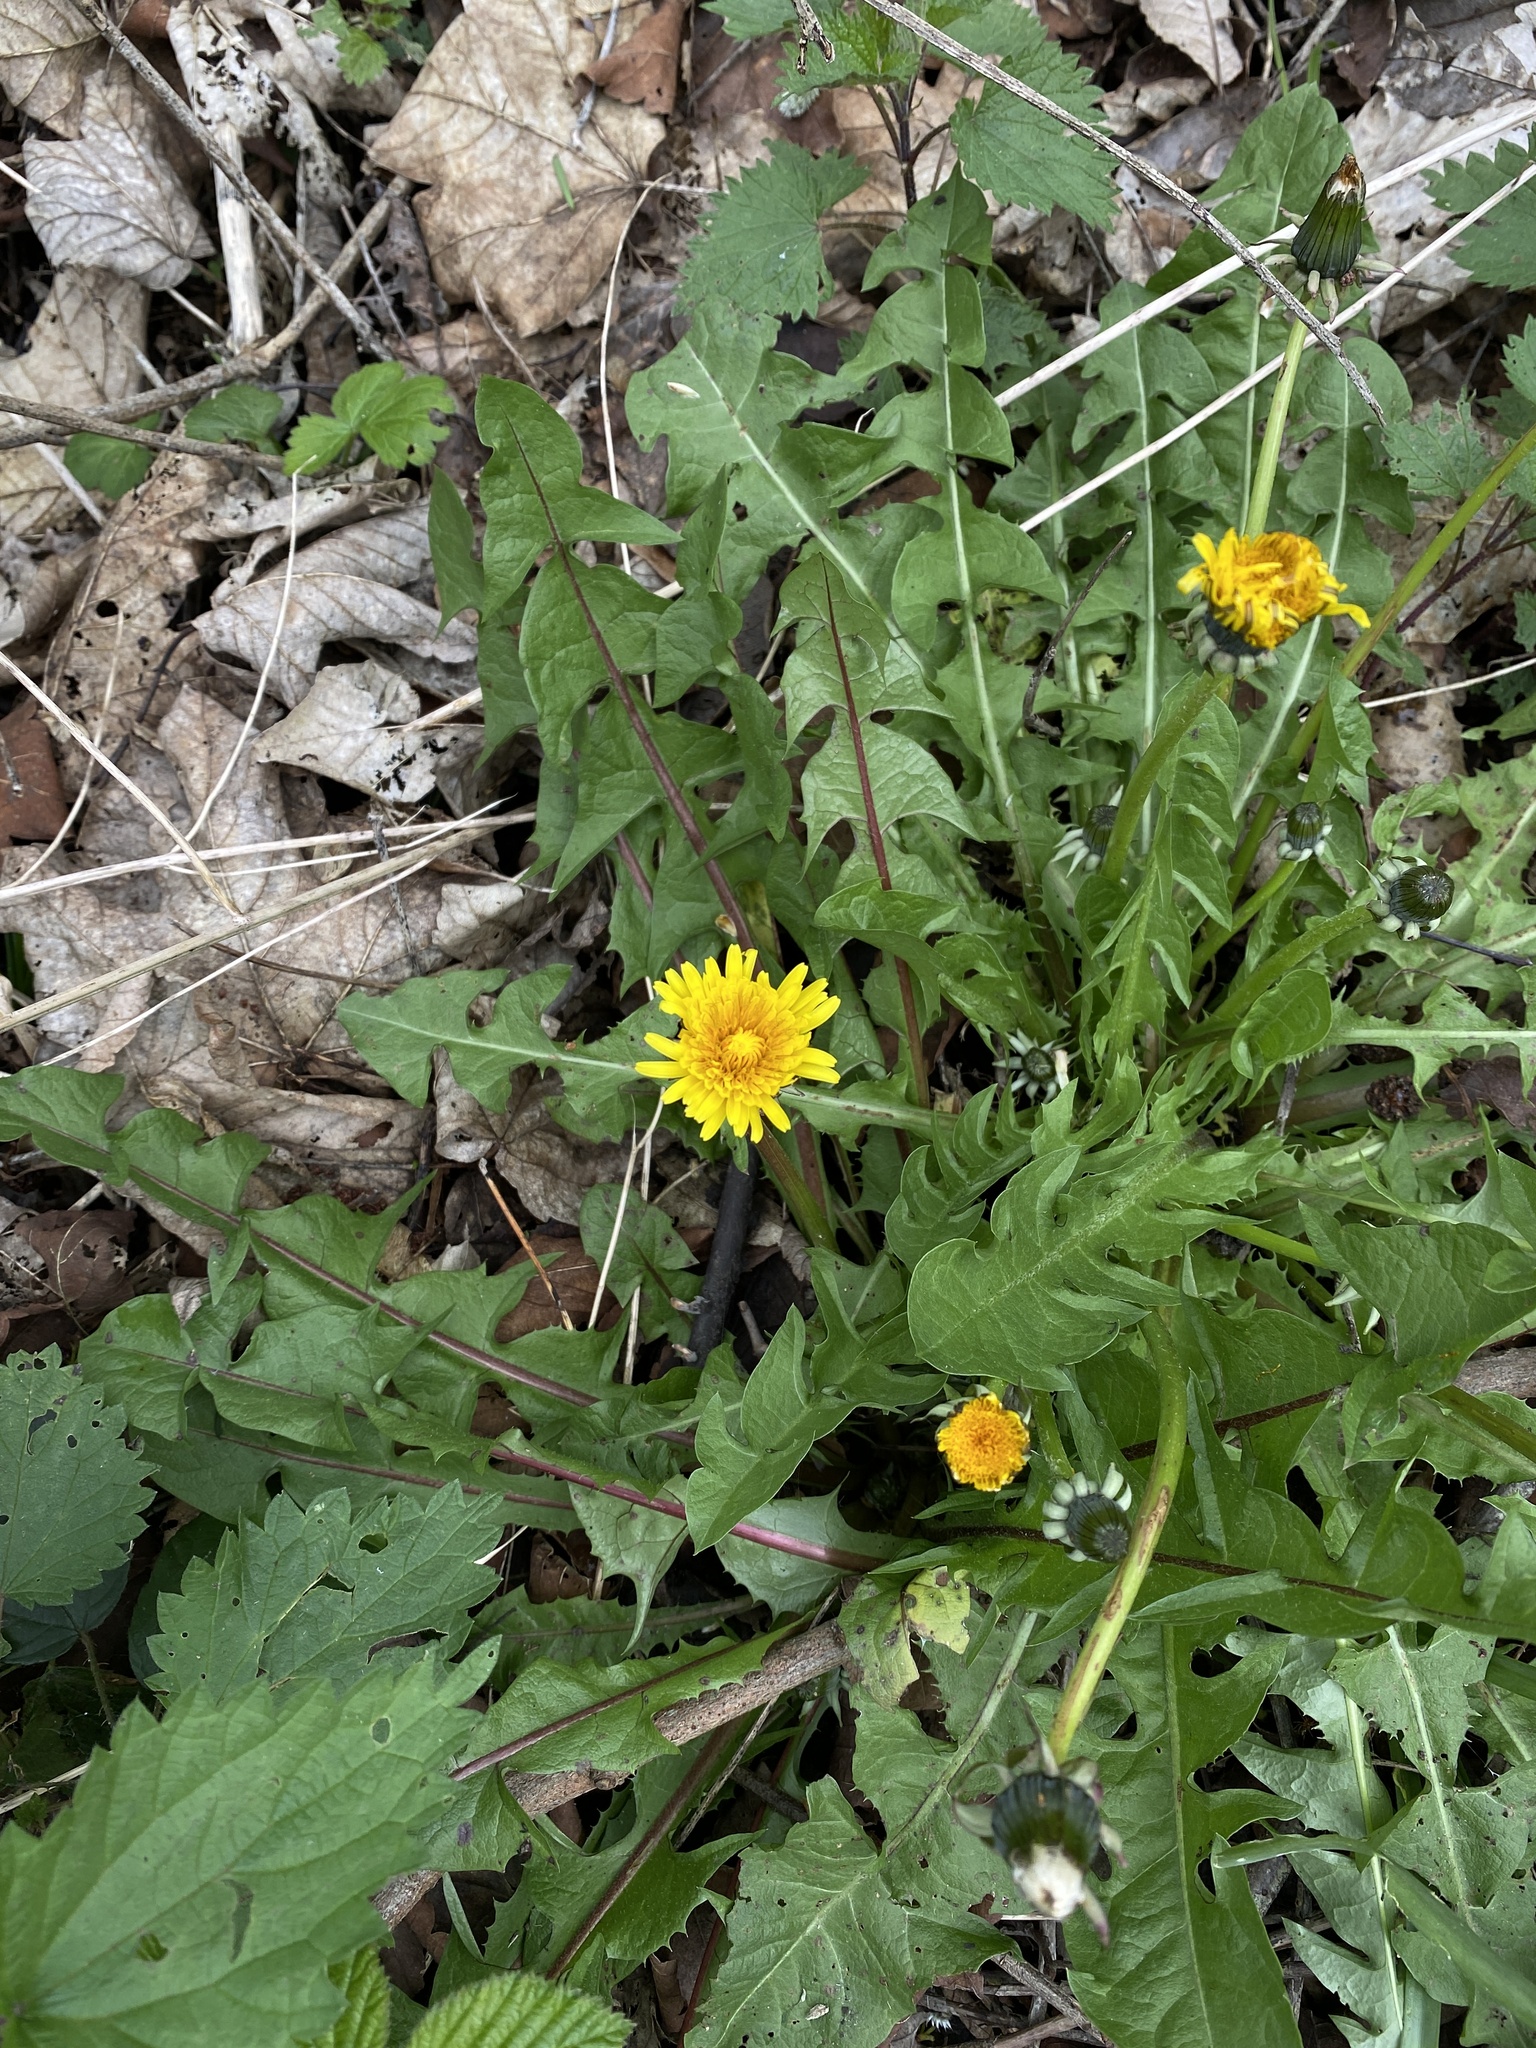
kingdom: Plantae
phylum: Tracheophyta
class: Magnoliopsida
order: Asterales
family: Asteraceae
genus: Taraxacum
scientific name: Taraxacum officinale
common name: Common dandelion
